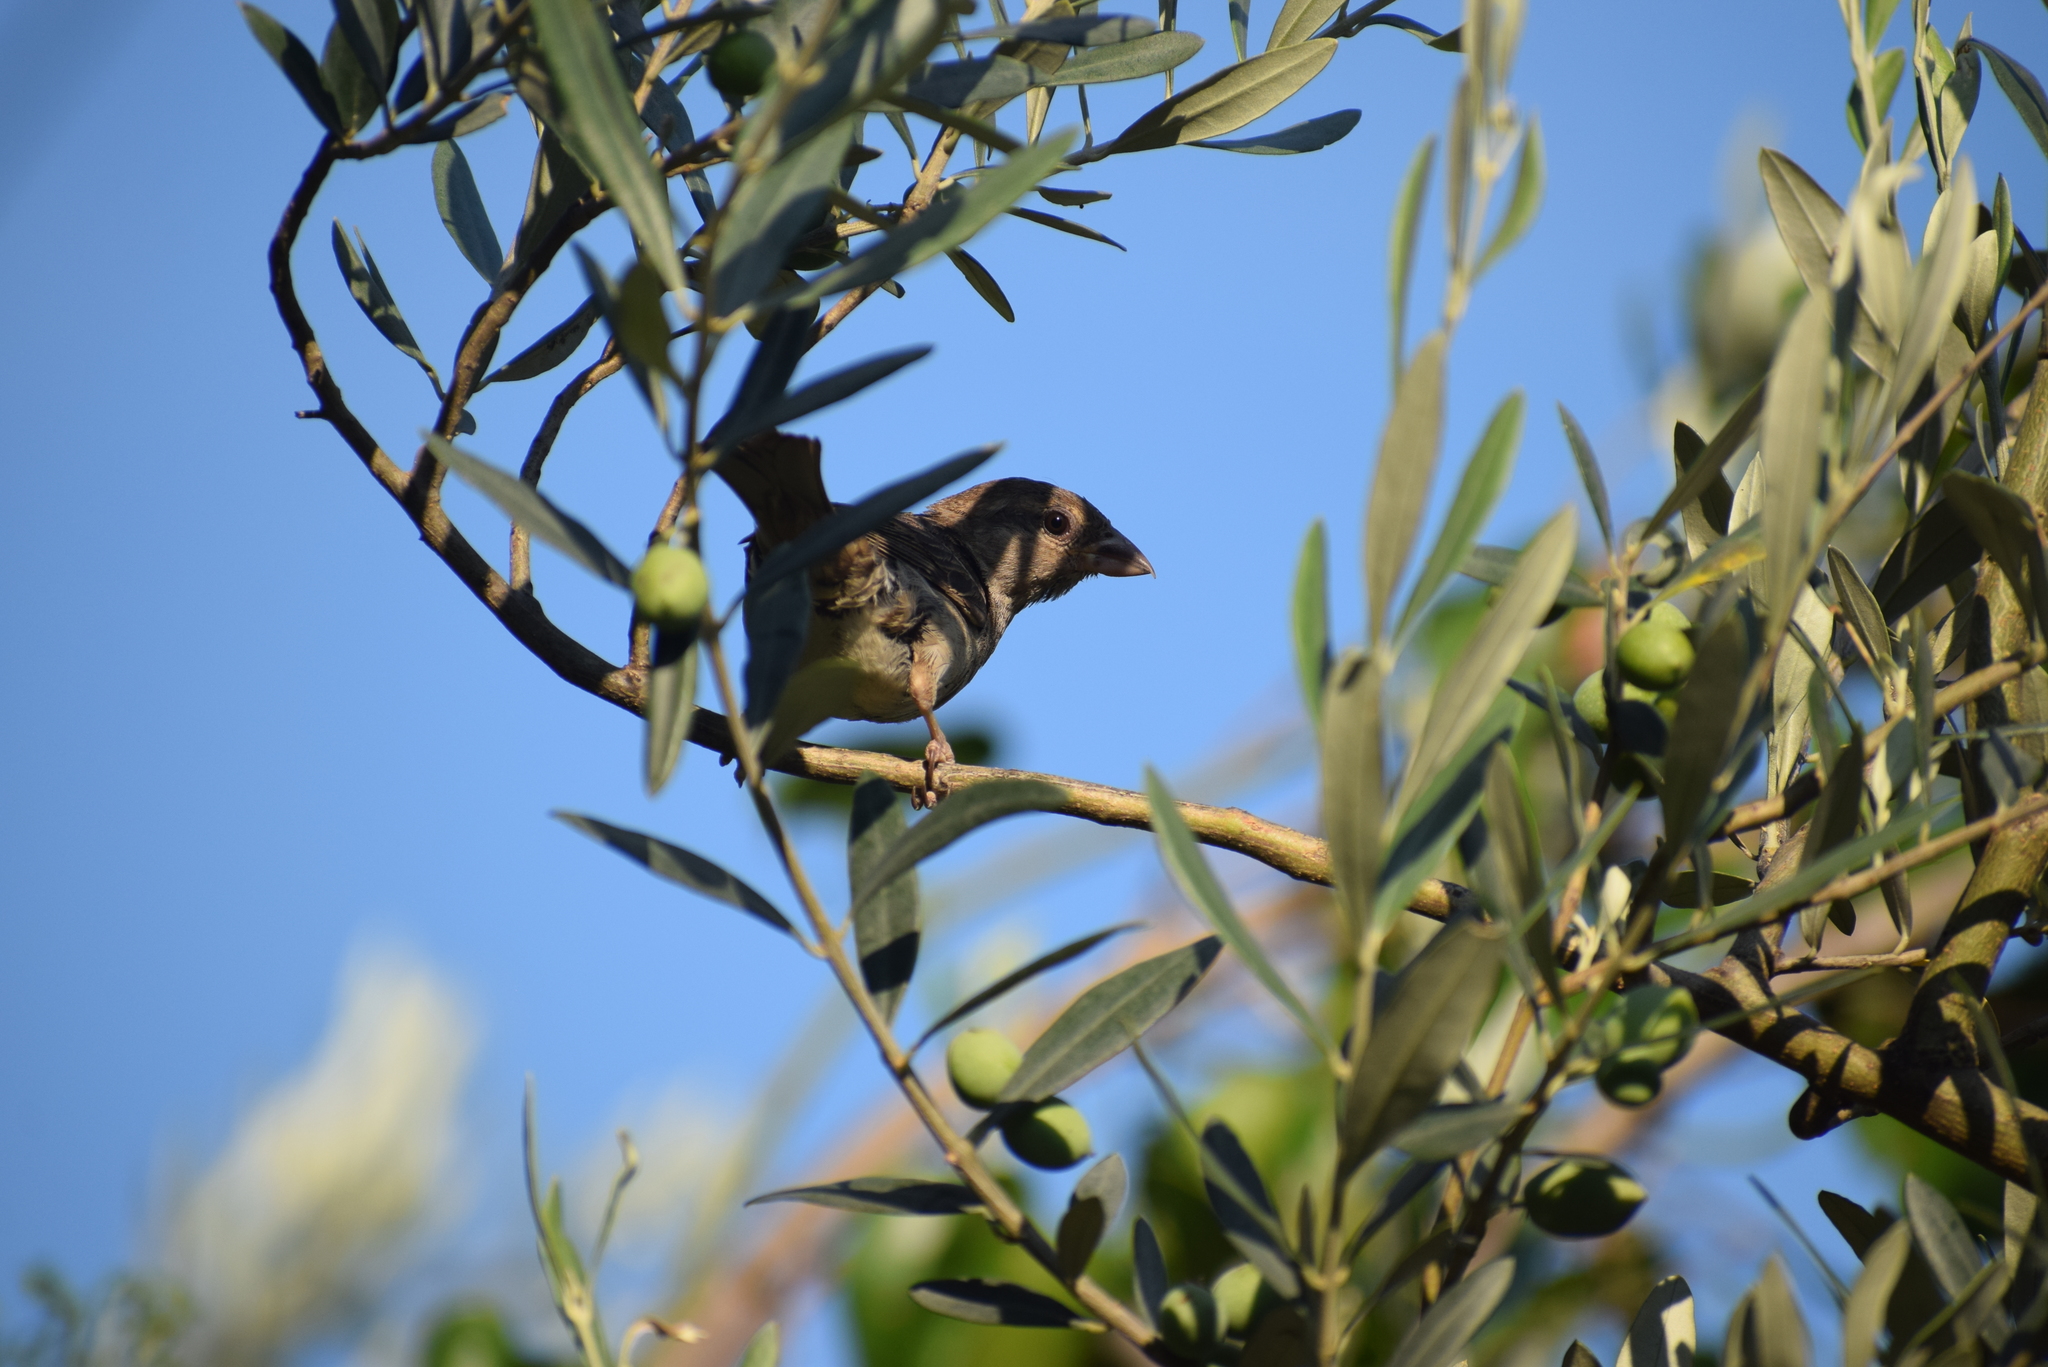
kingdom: Animalia
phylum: Chordata
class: Aves
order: Passeriformes
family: Passeridae
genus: Passer
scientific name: Passer domesticus
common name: House sparrow
